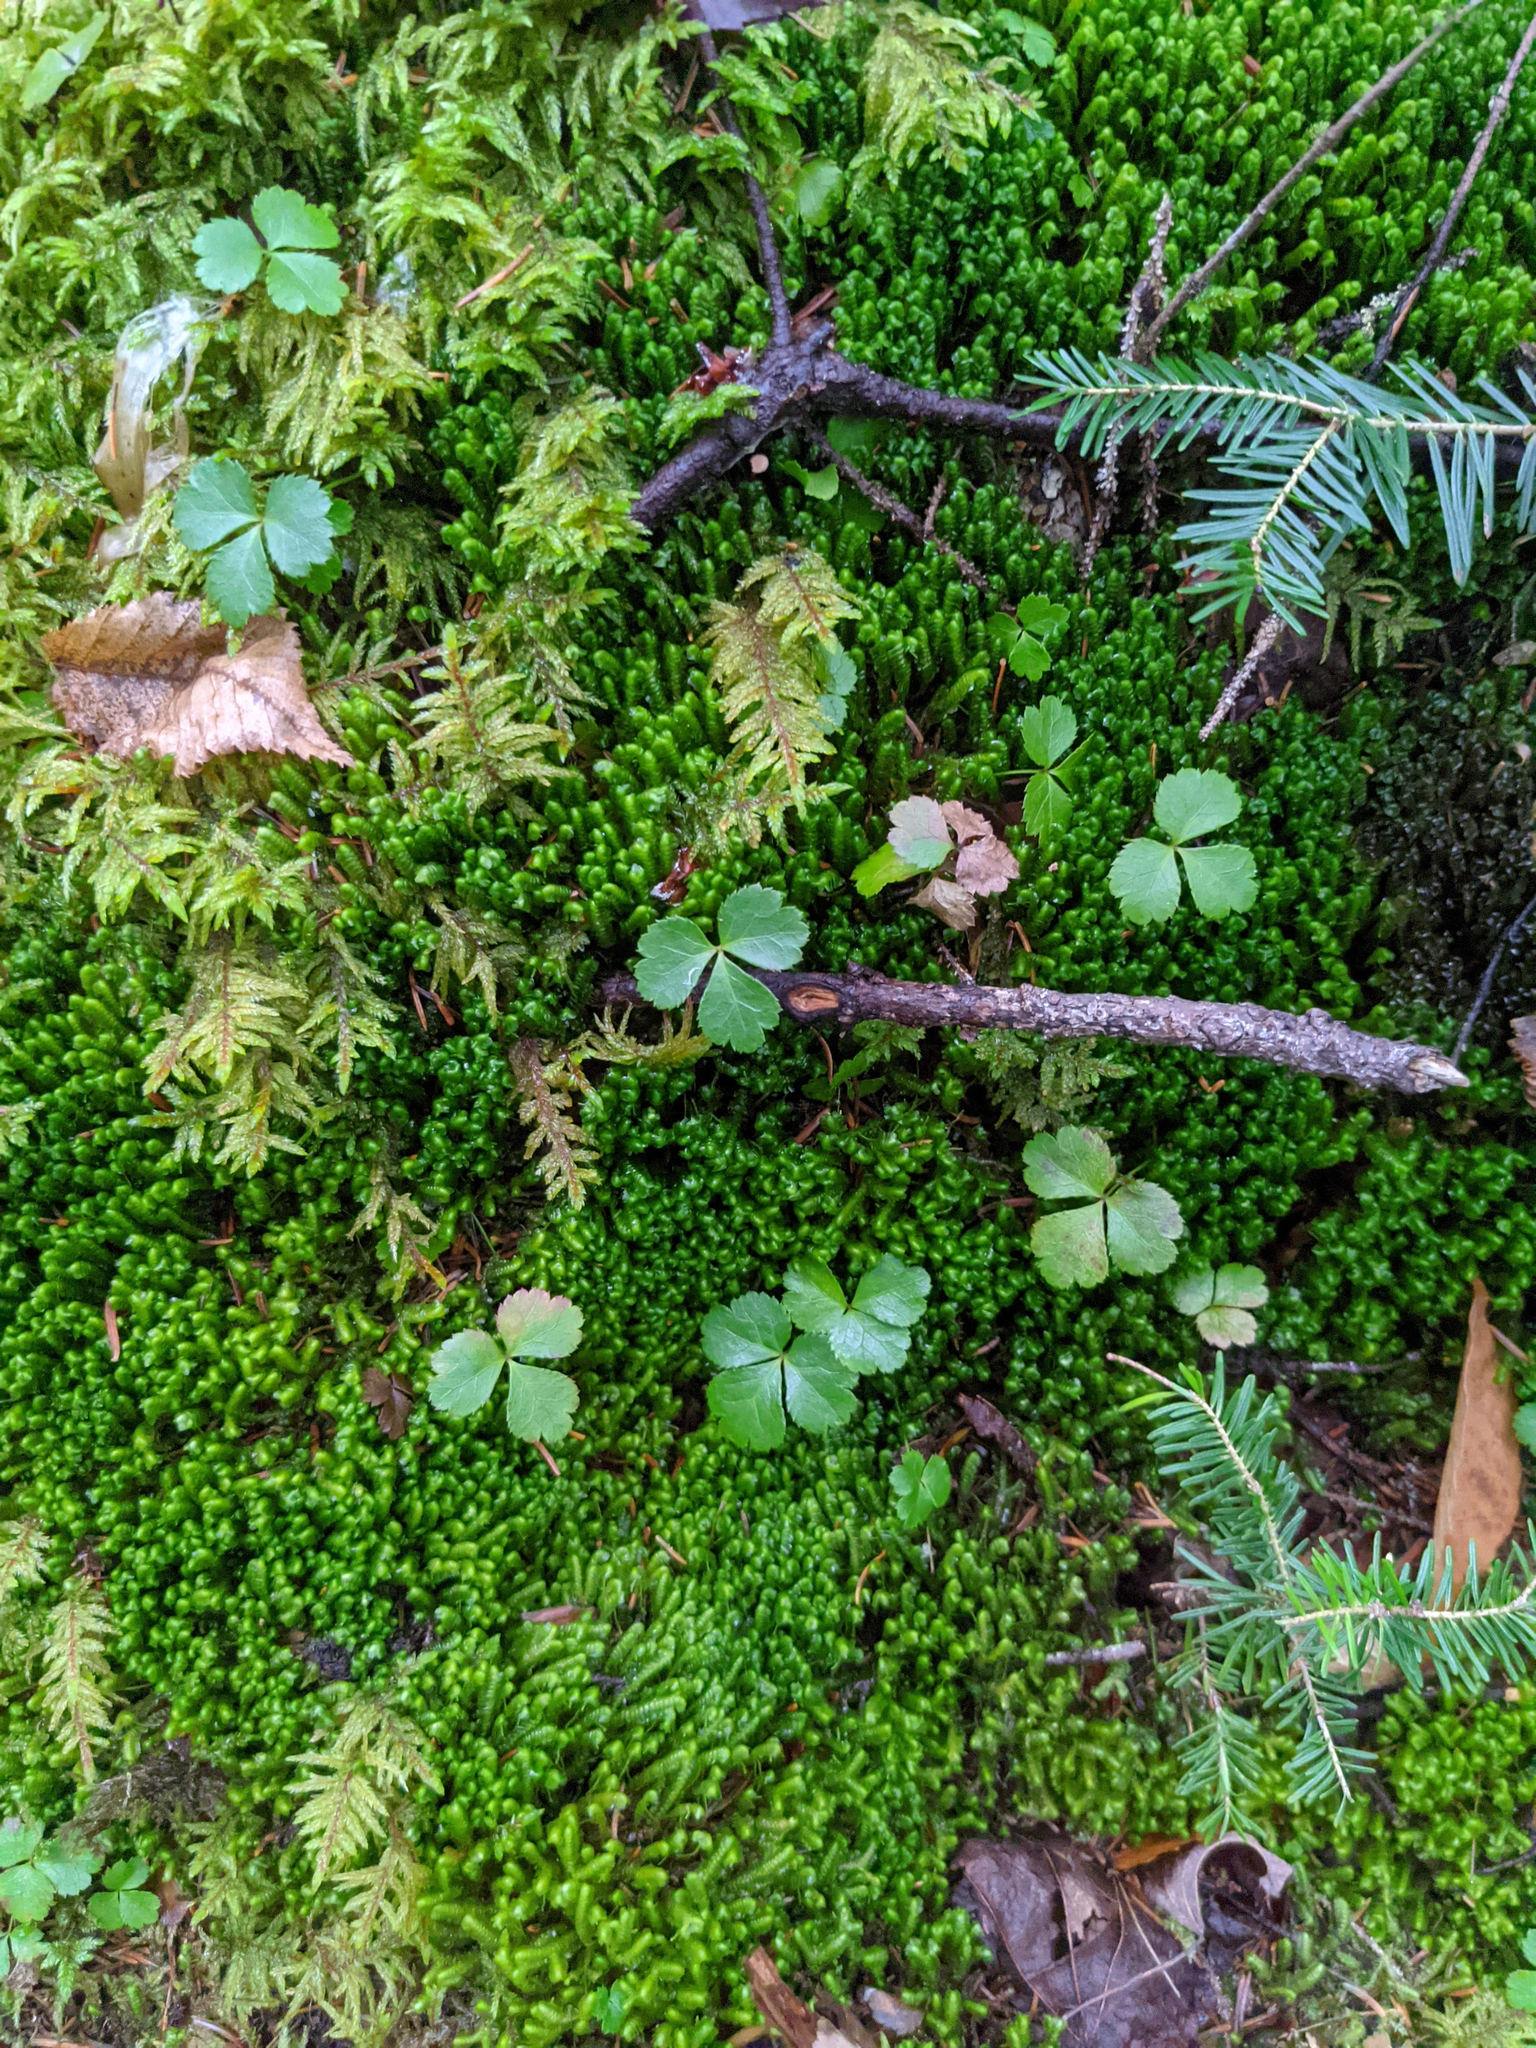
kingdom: Plantae
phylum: Tracheophyta
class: Magnoliopsida
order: Ranunculales
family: Ranunculaceae
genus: Coptis
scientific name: Coptis trifolia
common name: Canker-root
